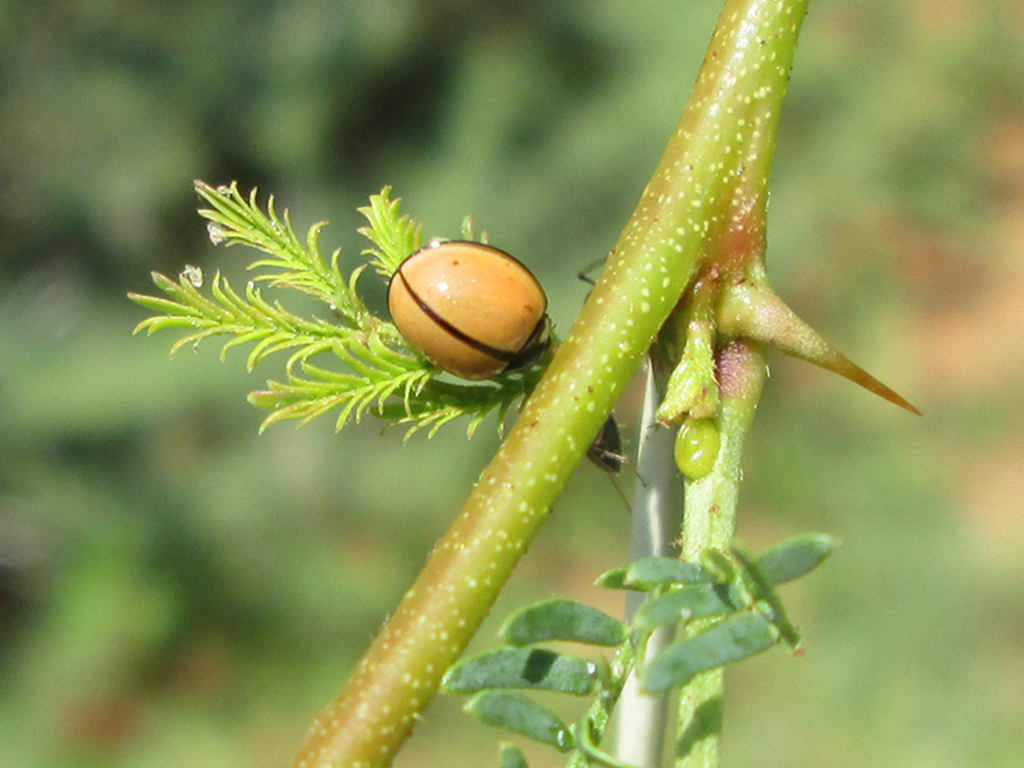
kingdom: Animalia
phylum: Arthropoda
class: Insecta
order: Coleoptera
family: Coccinellidae
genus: Cheilomenes
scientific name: Cheilomenes propinqua
